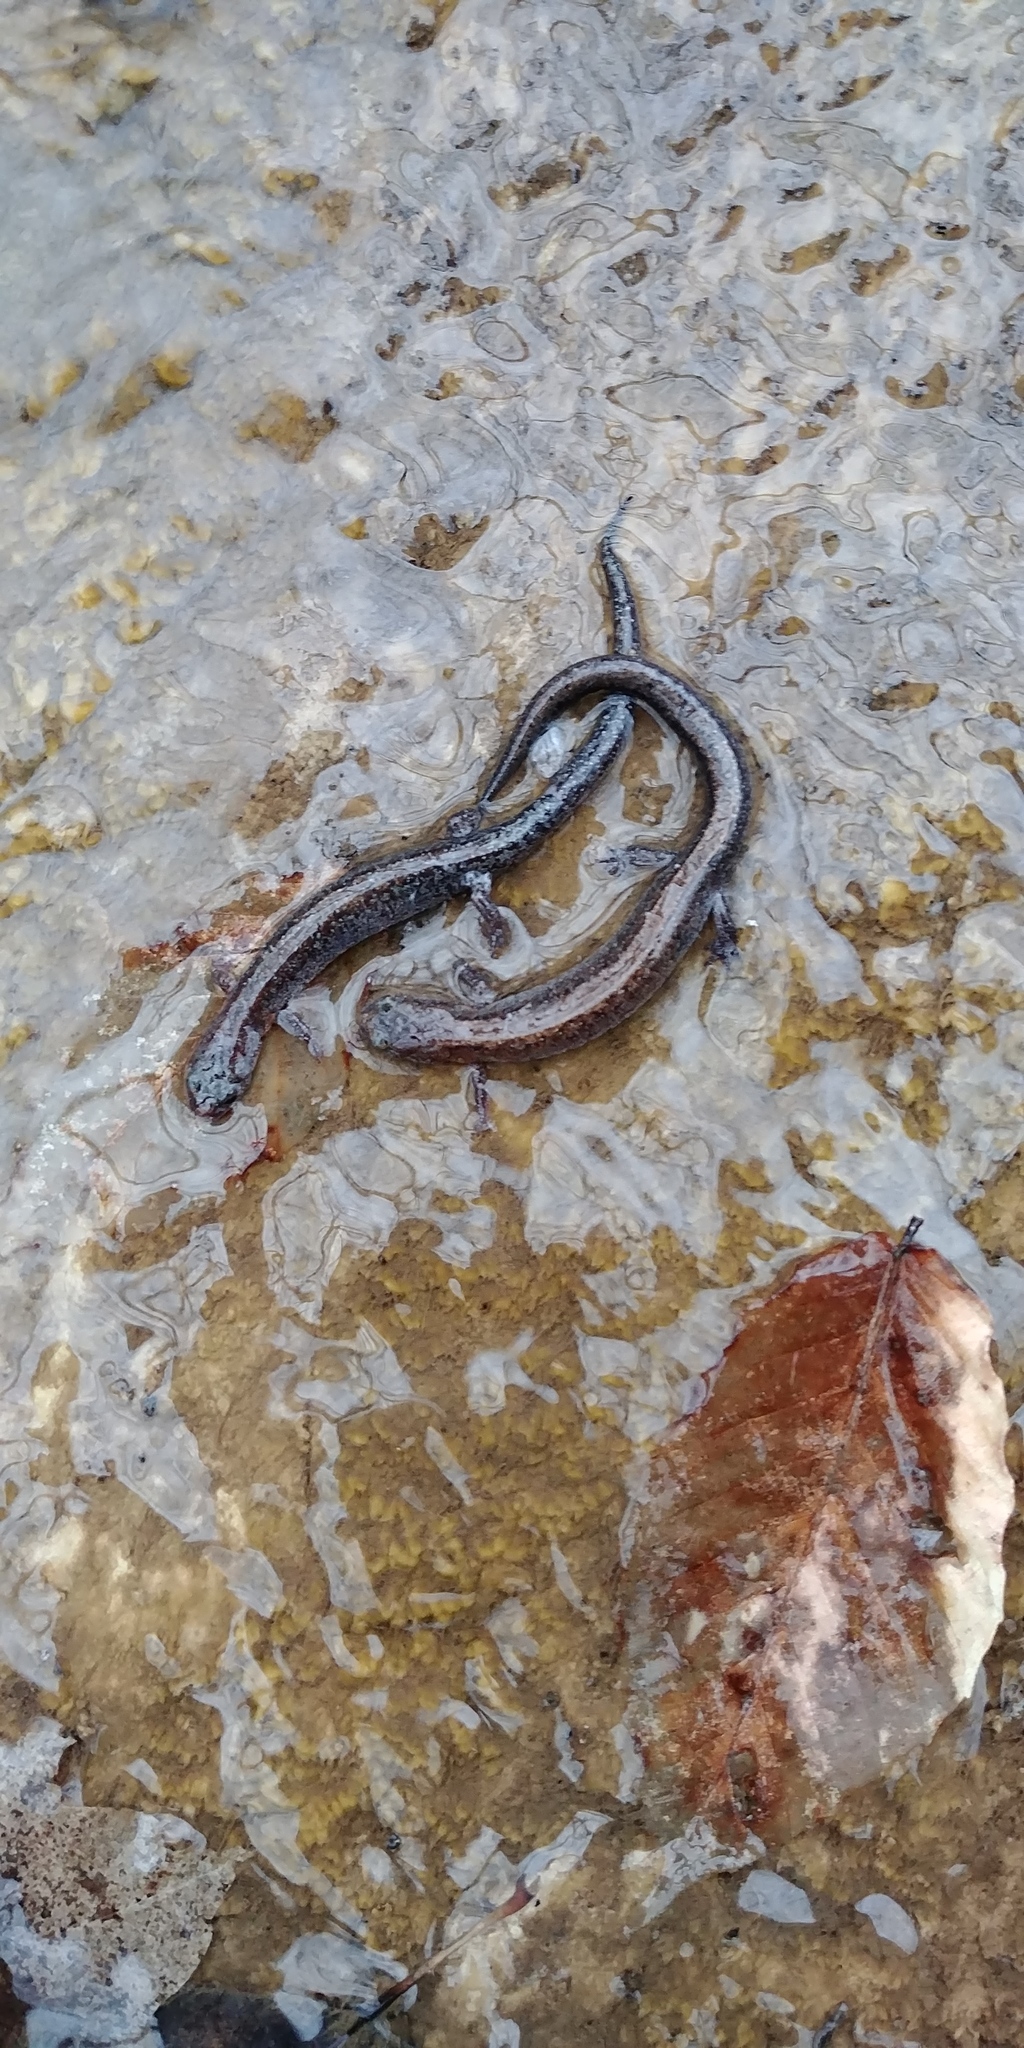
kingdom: Animalia
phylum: Chordata
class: Amphibia
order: Caudata
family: Plethodontidae
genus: Plethodon
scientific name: Plethodon dorsalis
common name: Northern zigzag salamander
